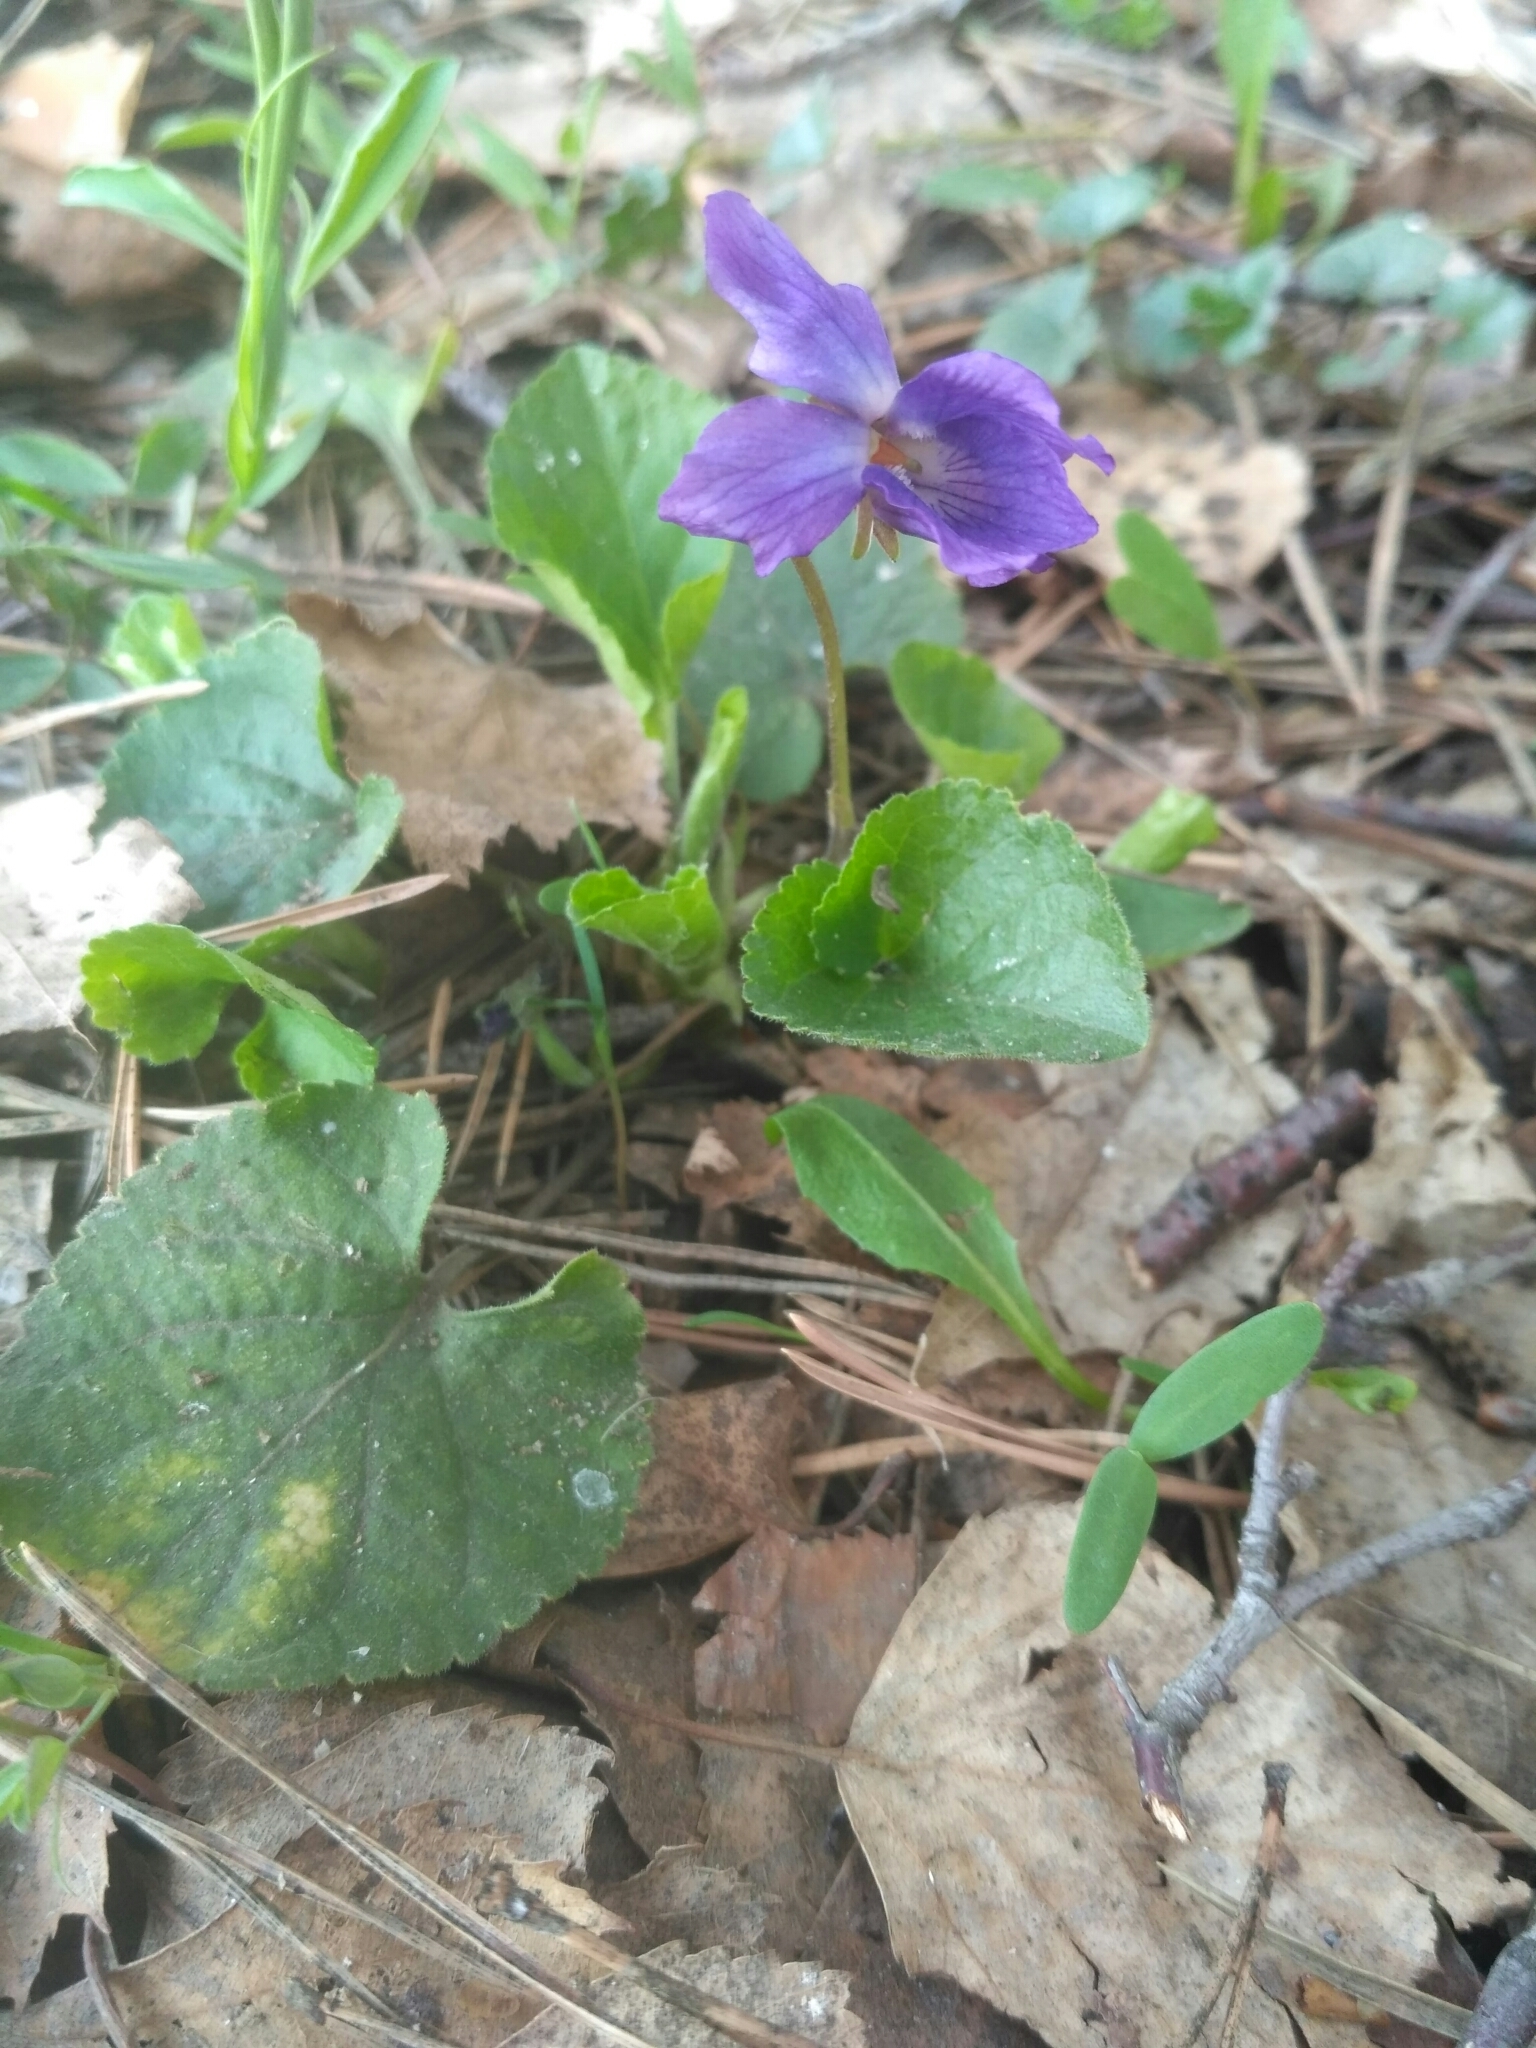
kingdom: Plantae
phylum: Tracheophyta
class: Magnoliopsida
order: Malpighiales
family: Violaceae
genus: Viola
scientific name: Viola odorata
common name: Sweet violet
